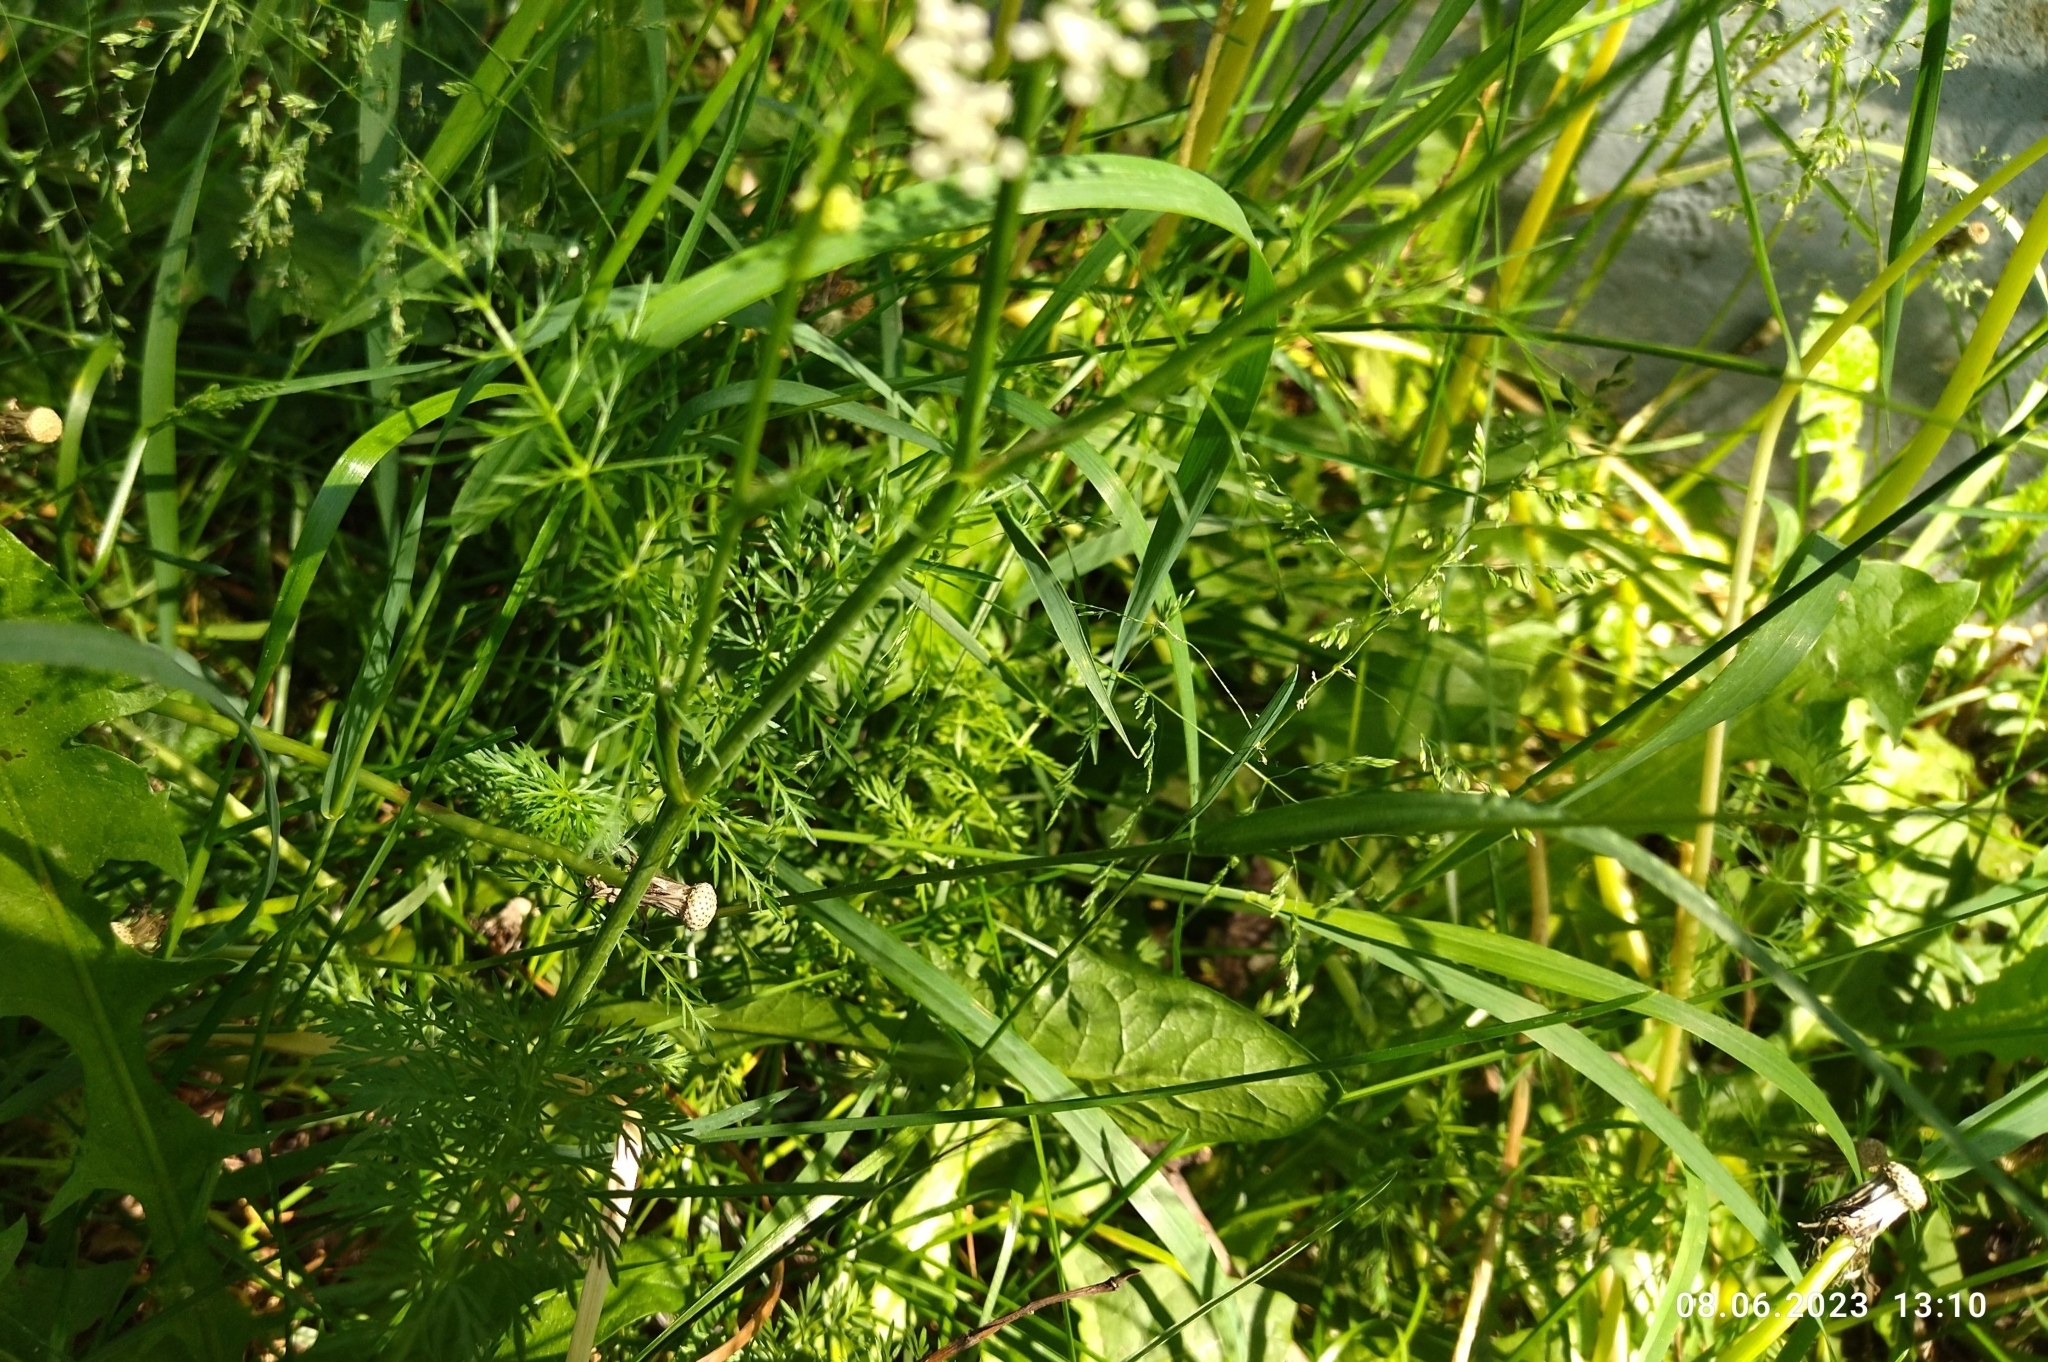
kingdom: Plantae
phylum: Tracheophyta
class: Magnoliopsida
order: Apiales
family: Apiaceae
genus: Carum
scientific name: Carum carvi
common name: Caraway
